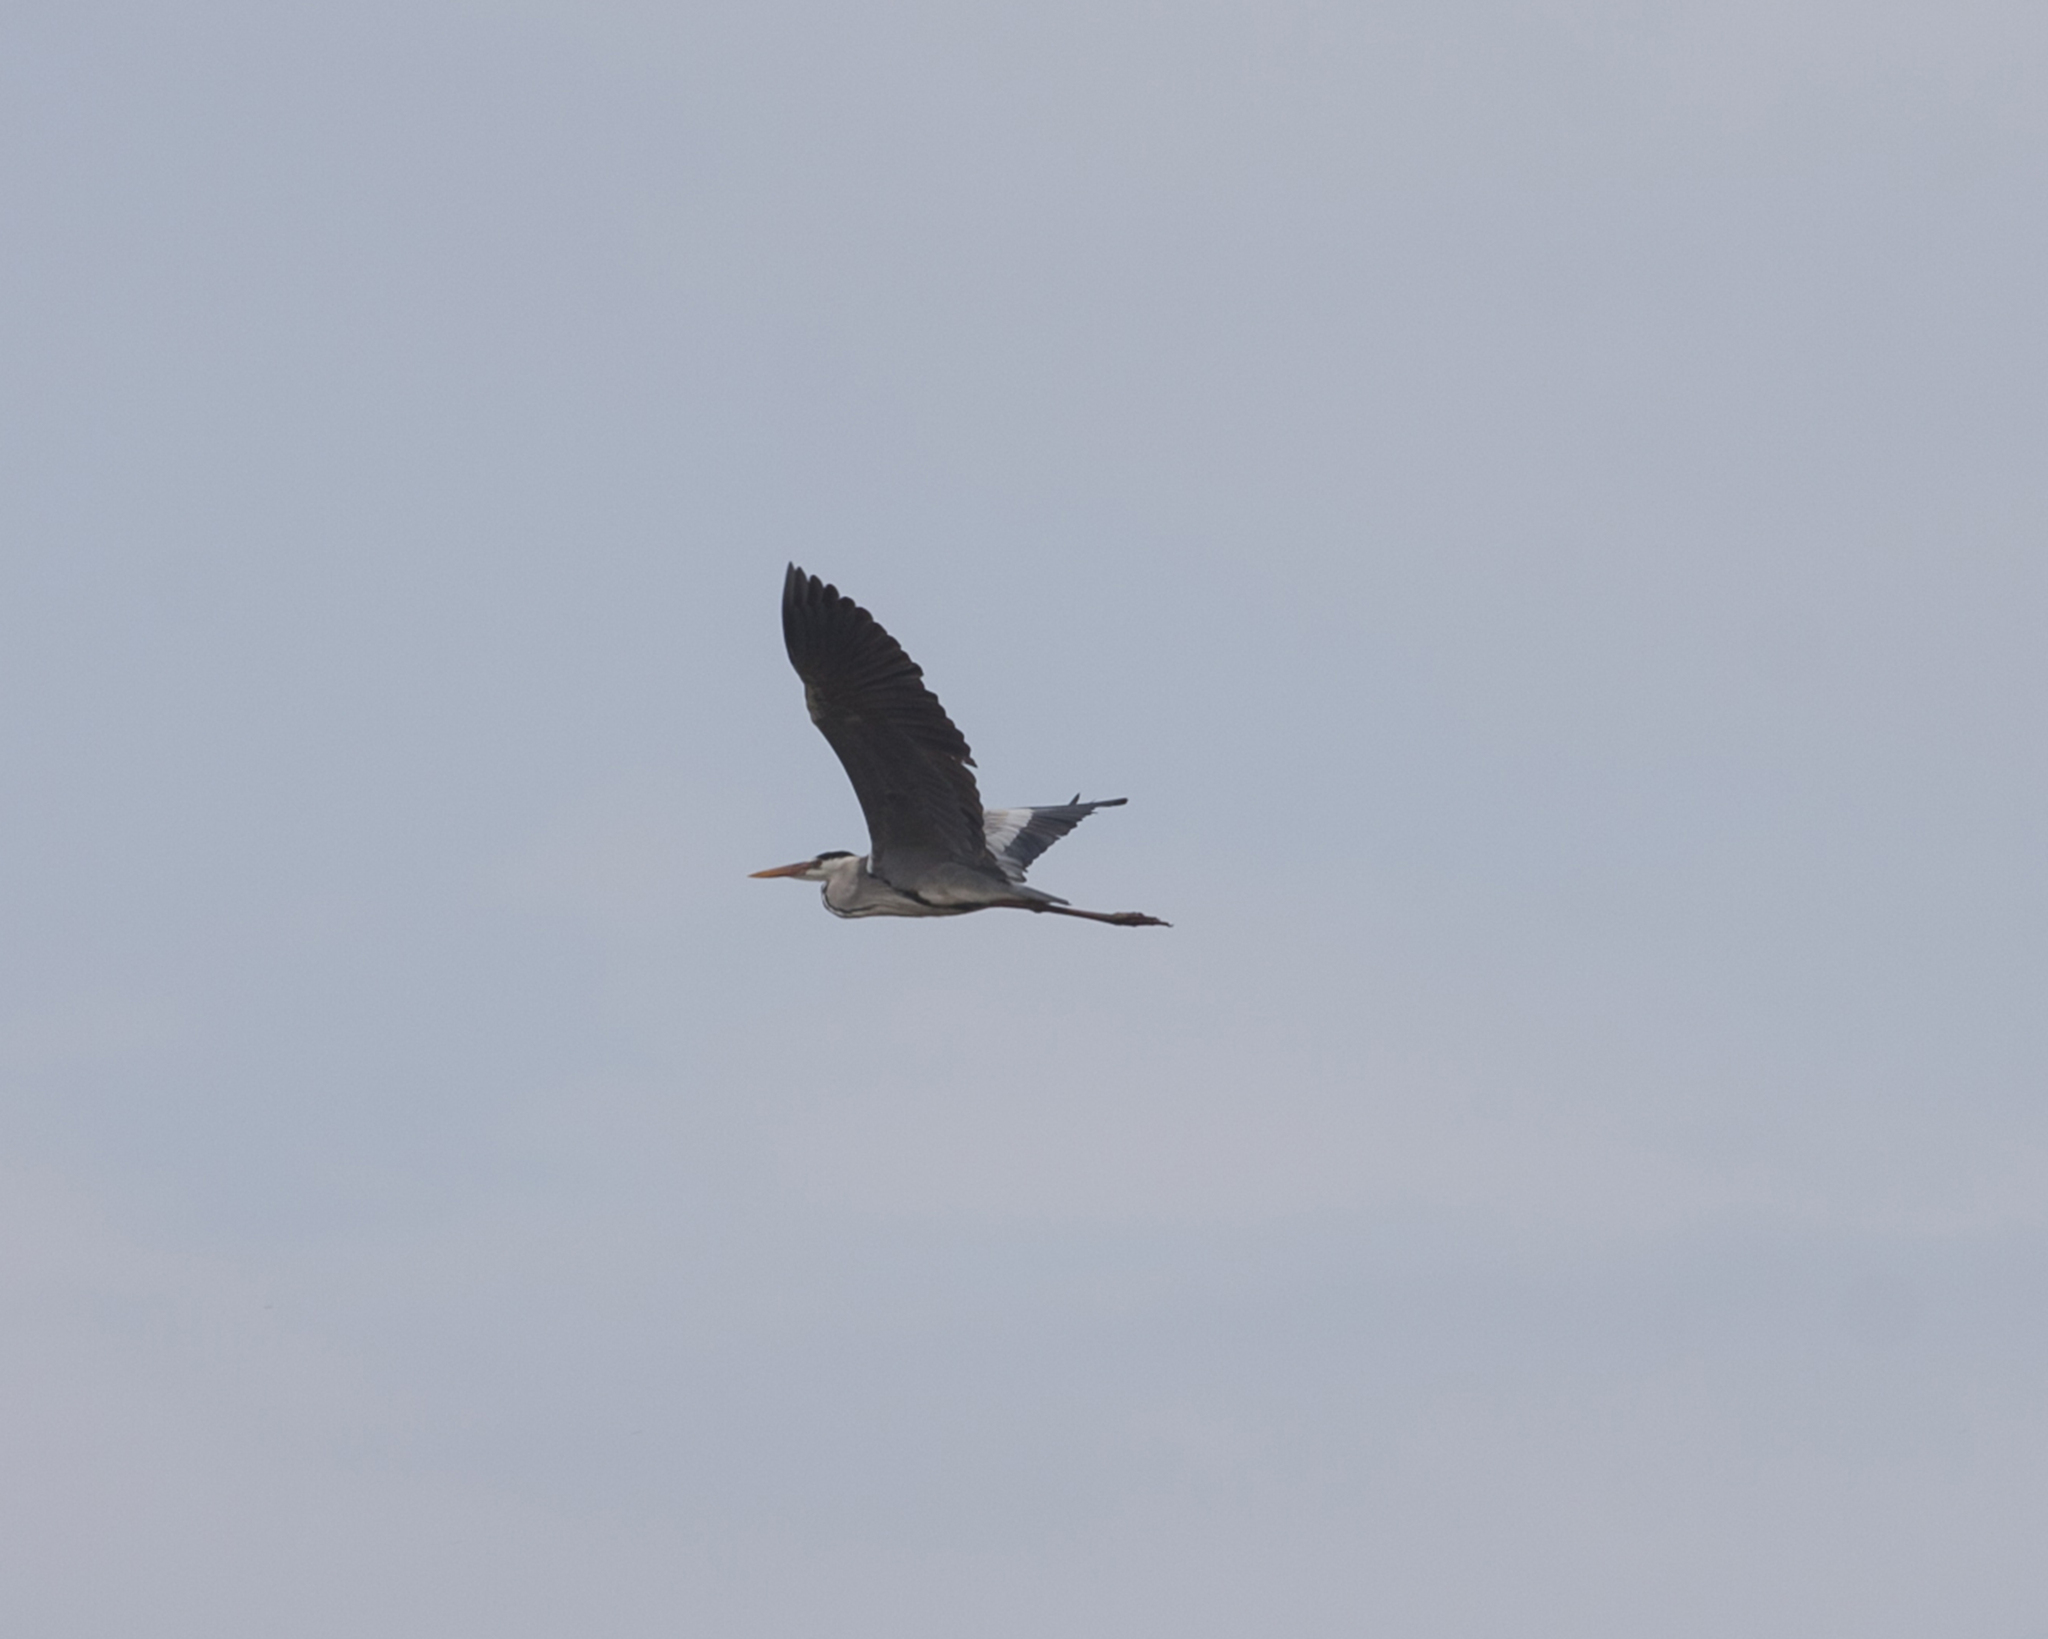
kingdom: Animalia
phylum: Chordata
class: Aves
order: Pelecaniformes
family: Ardeidae
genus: Ardea
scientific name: Ardea cinerea
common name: Grey heron
